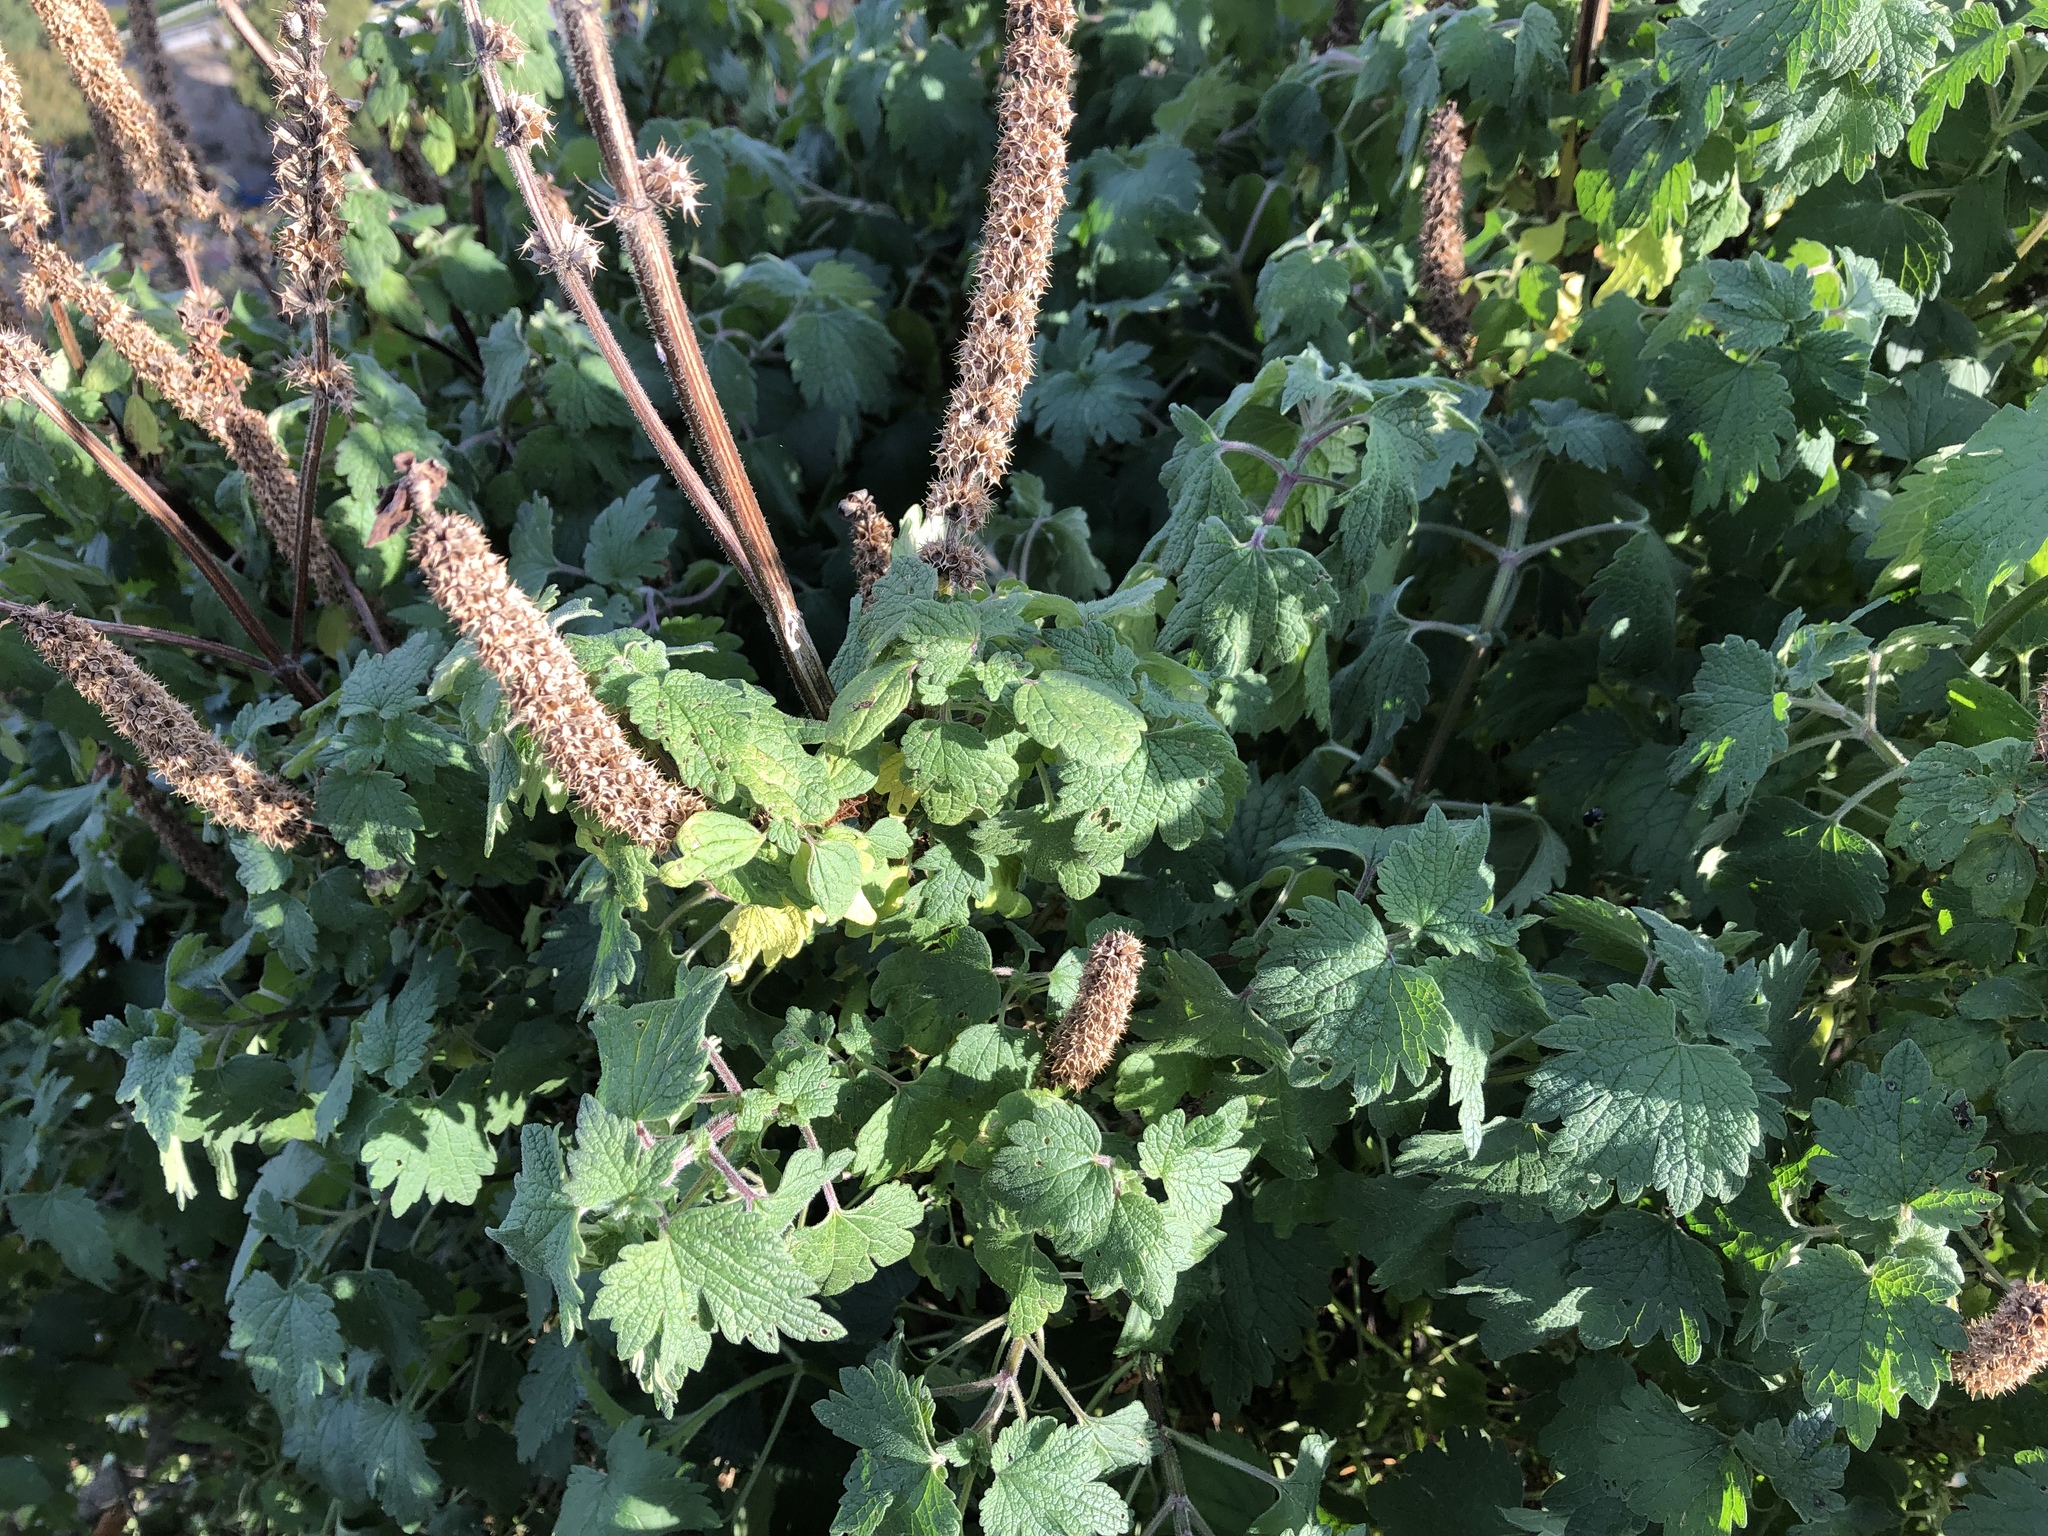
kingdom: Plantae
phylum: Tracheophyta
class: Magnoliopsida
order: Lamiales
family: Lamiaceae
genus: Leonurus
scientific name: Leonurus cardiaca
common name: Motherwort
